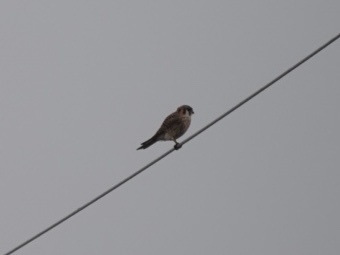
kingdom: Animalia
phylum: Chordata
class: Aves
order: Falconiformes
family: Falconidae
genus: Falco
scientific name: Falco sparverius
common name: American kestrel
